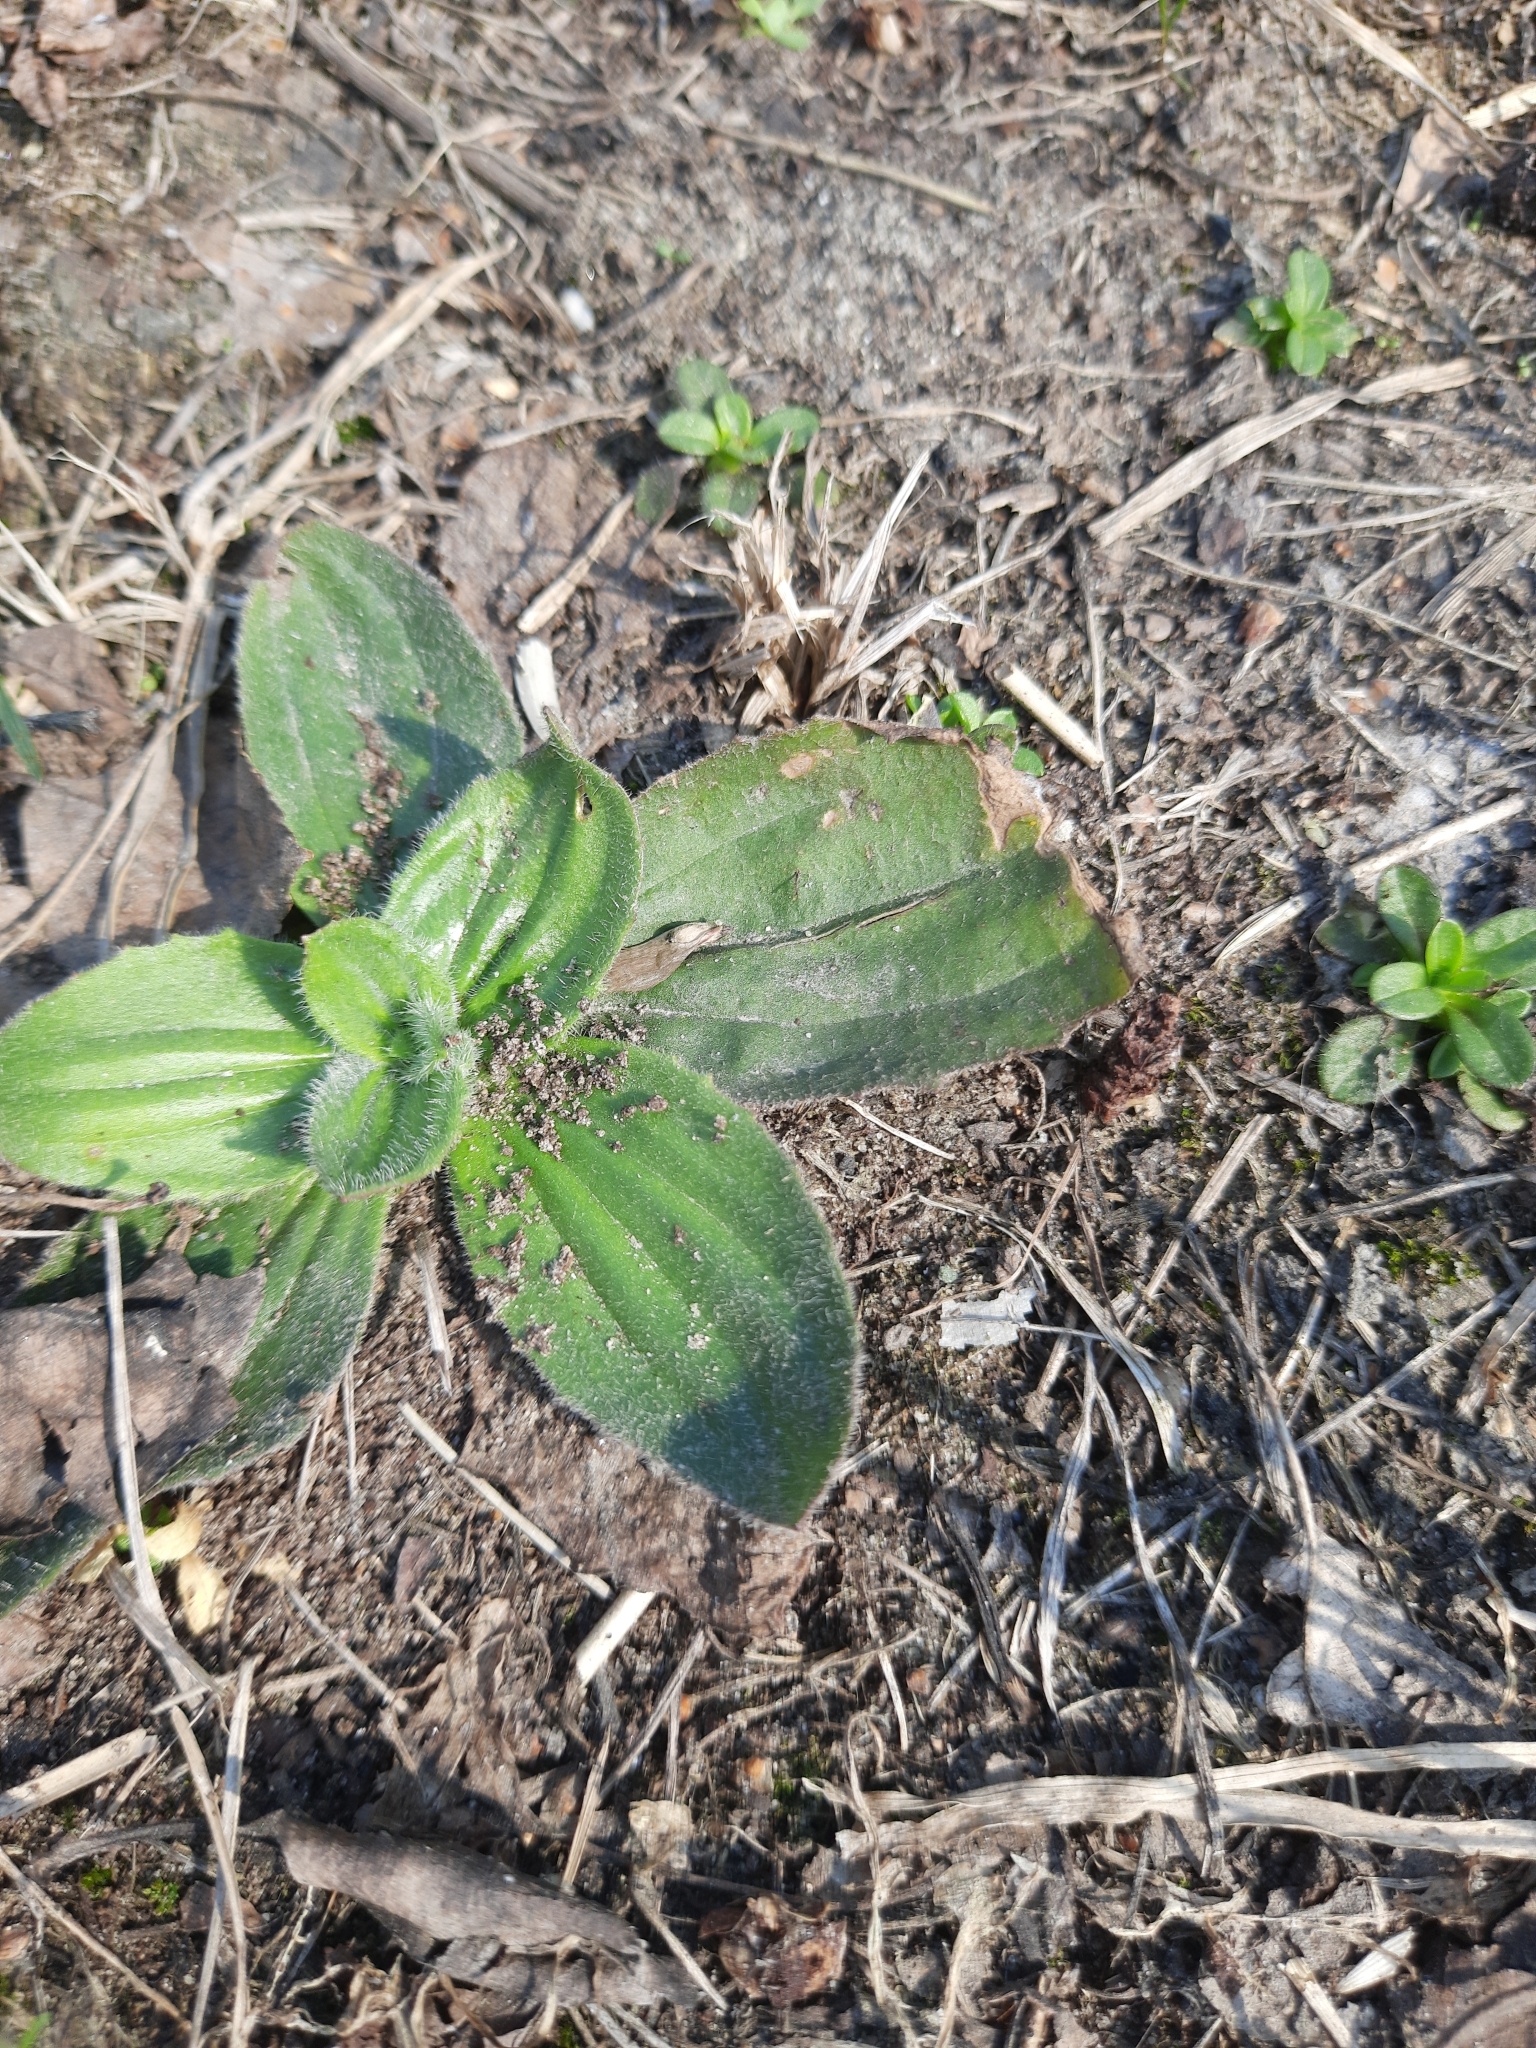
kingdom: Plantae
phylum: Tracheophyta
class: Magnoliopsida
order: Lamiales
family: Plantaginaceae
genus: Plantago
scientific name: Plantago media
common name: Hoary plantain
